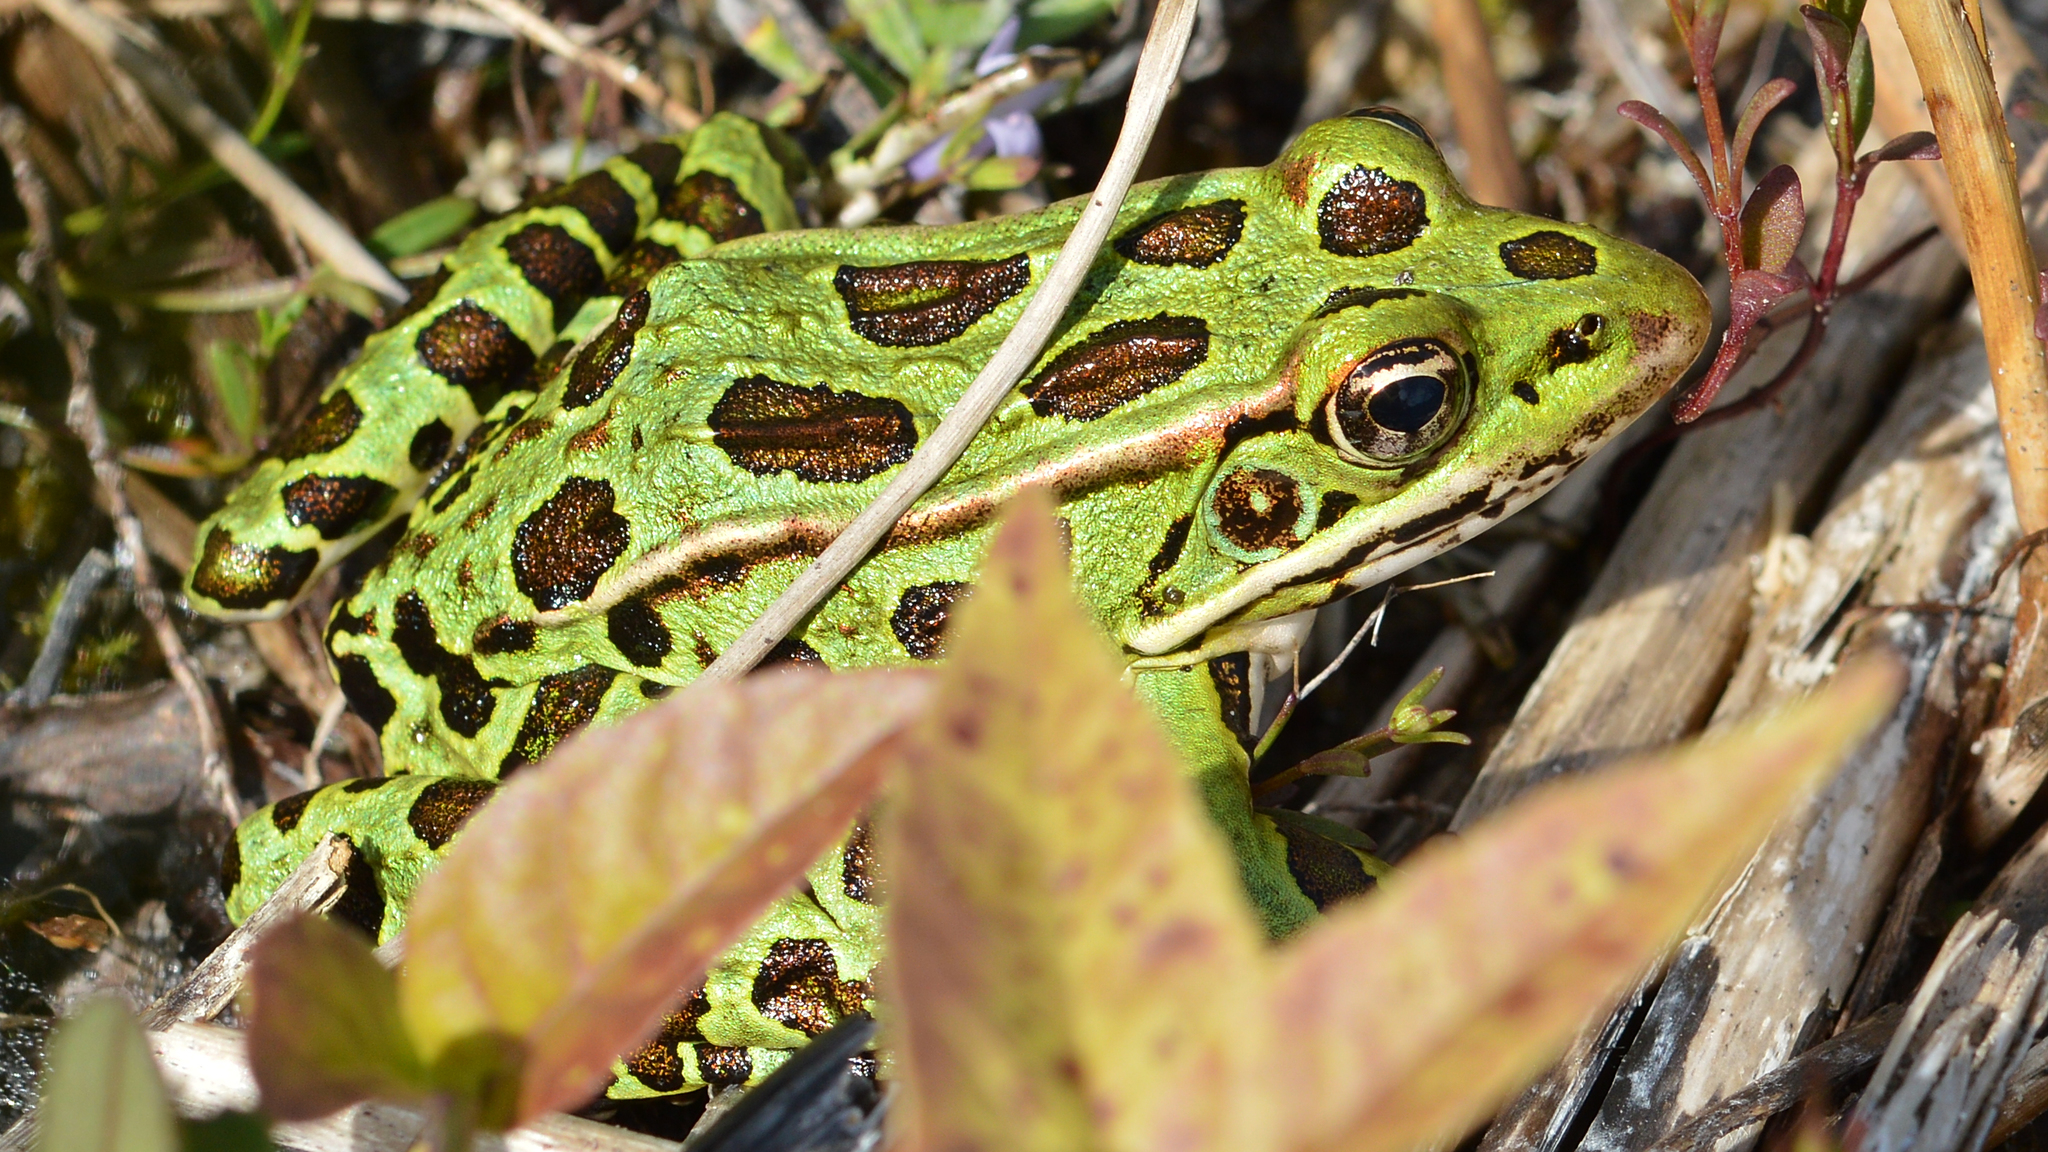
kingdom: Animalia
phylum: Chordata
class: Amphibia
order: Anura
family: Ranidae
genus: Lithobates
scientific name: Lithobates pipiens
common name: Northern leopard frog
